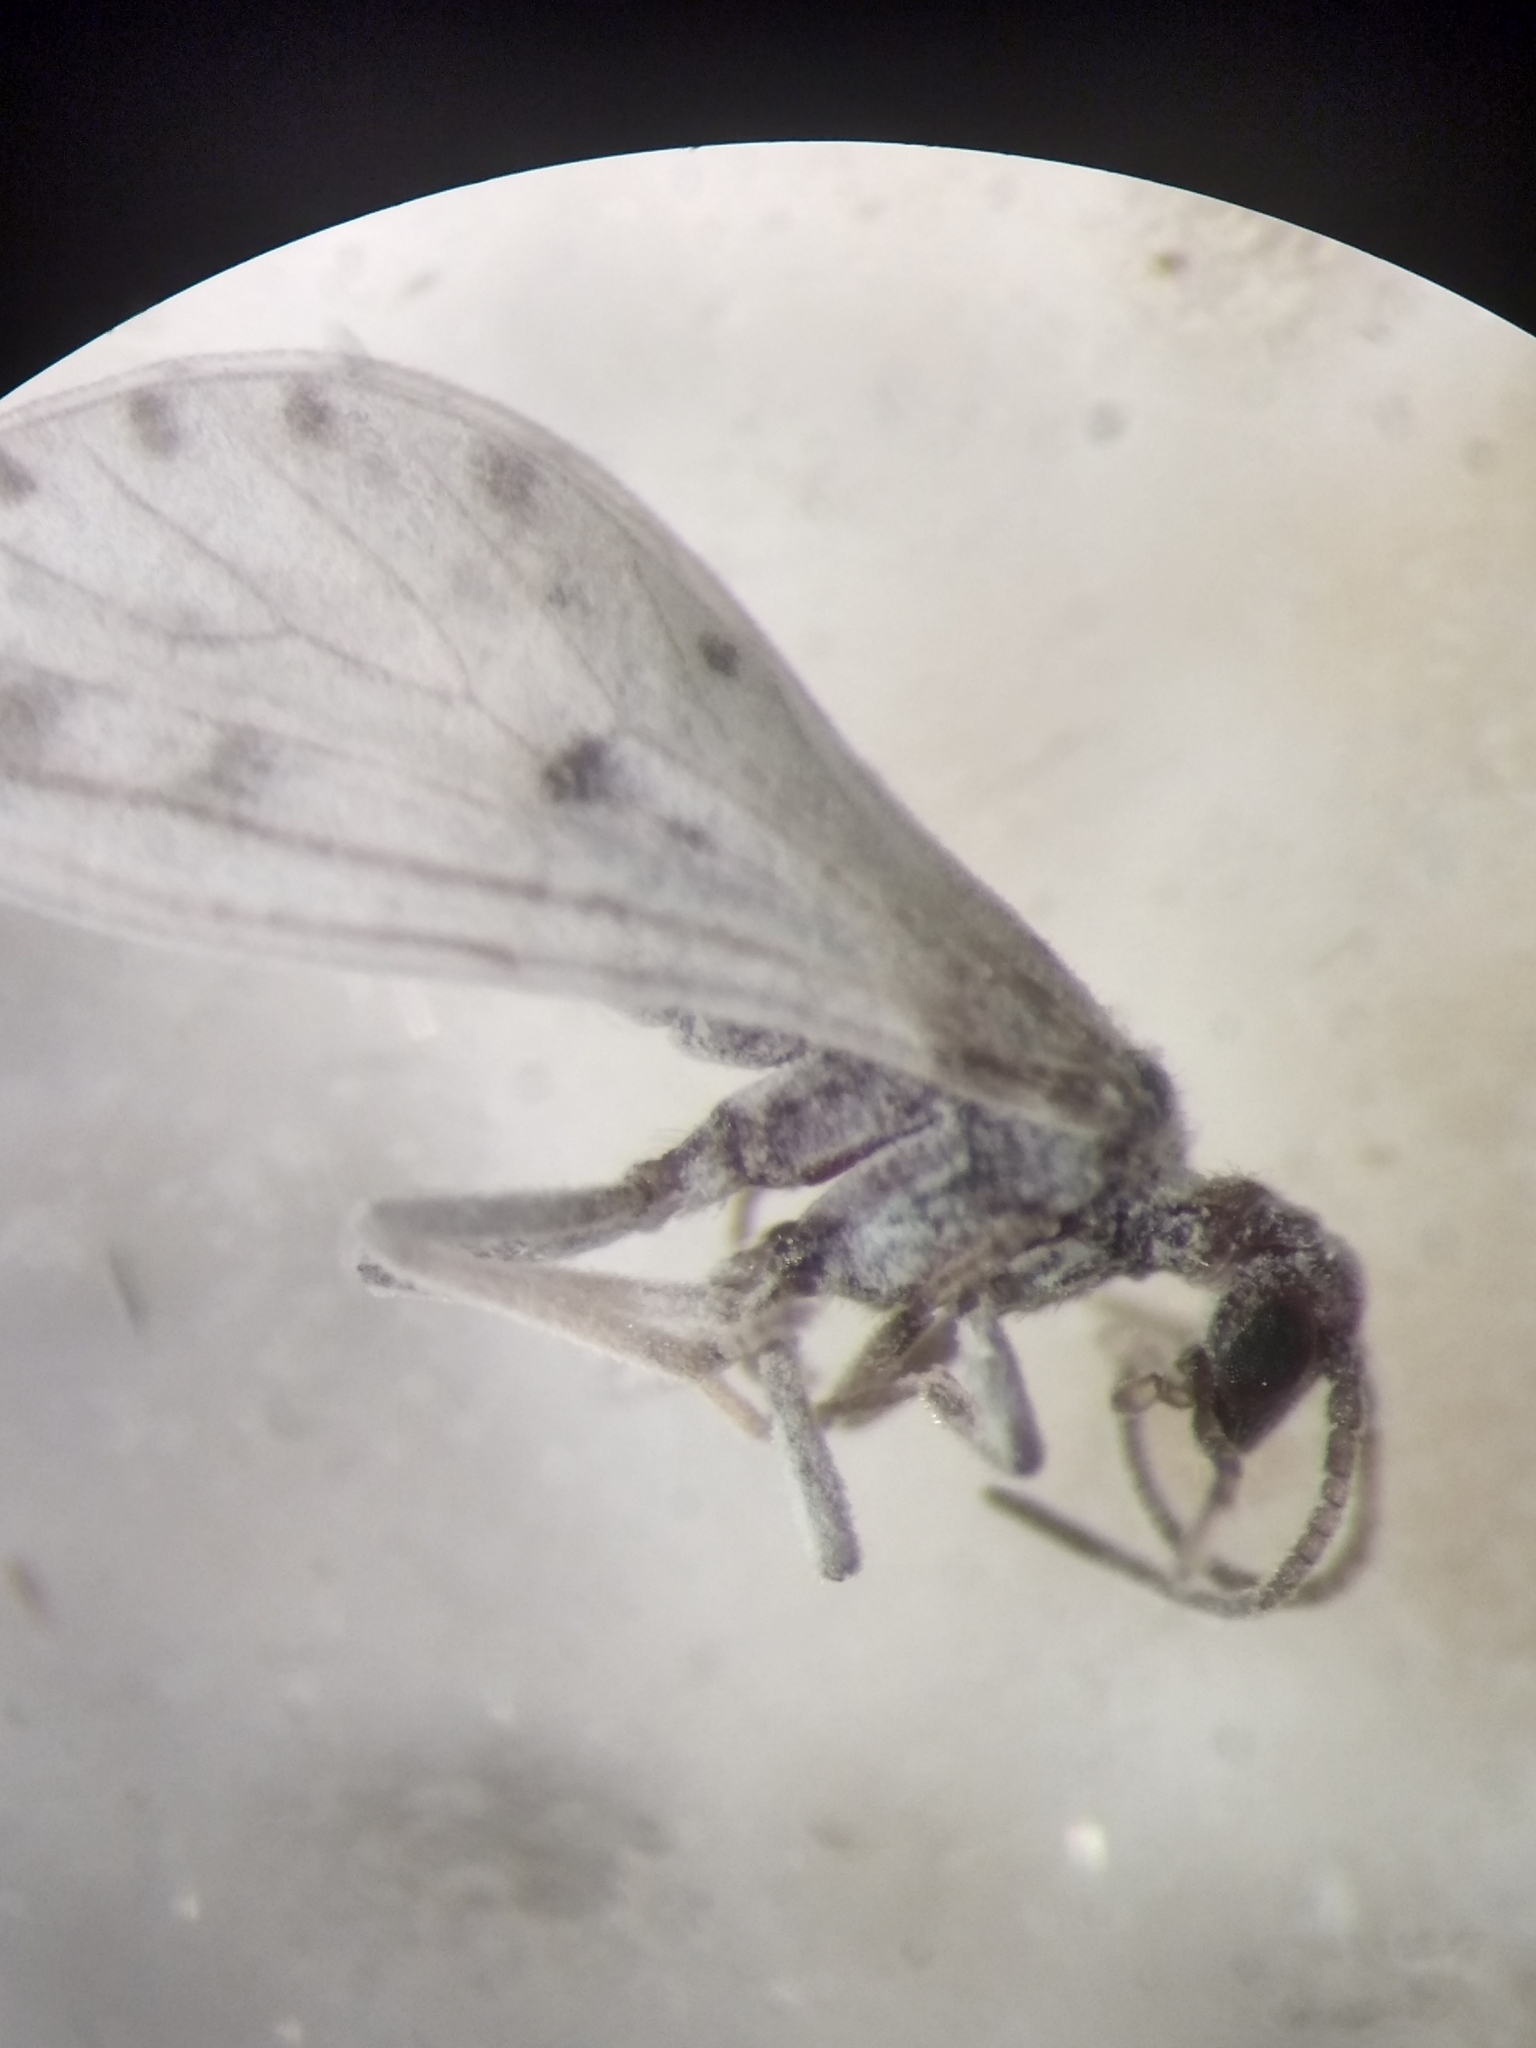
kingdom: Animalia
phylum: Arthropoda
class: Insecta
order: Neuroptera
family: Coniopterygidae
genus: Neoconis
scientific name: Neoconis marginata
